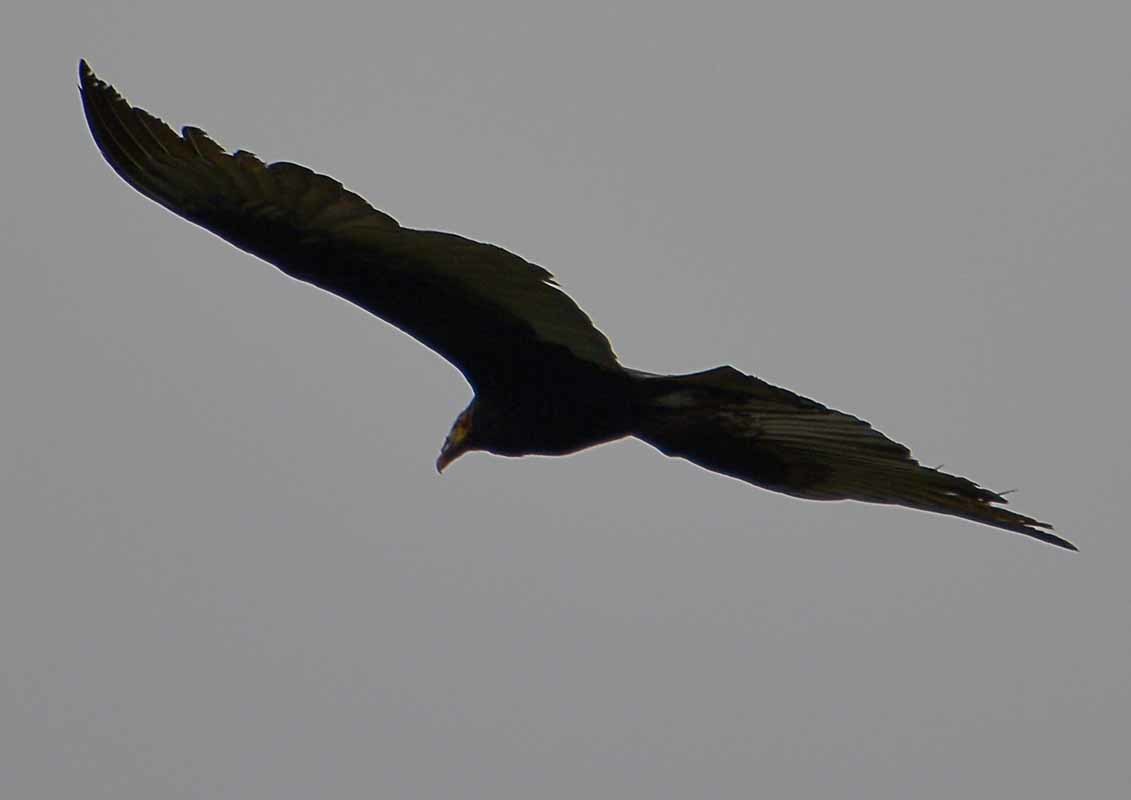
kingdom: Animalia
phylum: Chordata
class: Aves
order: Accipitriformes
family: Cathartidae
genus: Cathartes
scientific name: Cathartes burrovianus
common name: Lesser yellow-headed vulture
